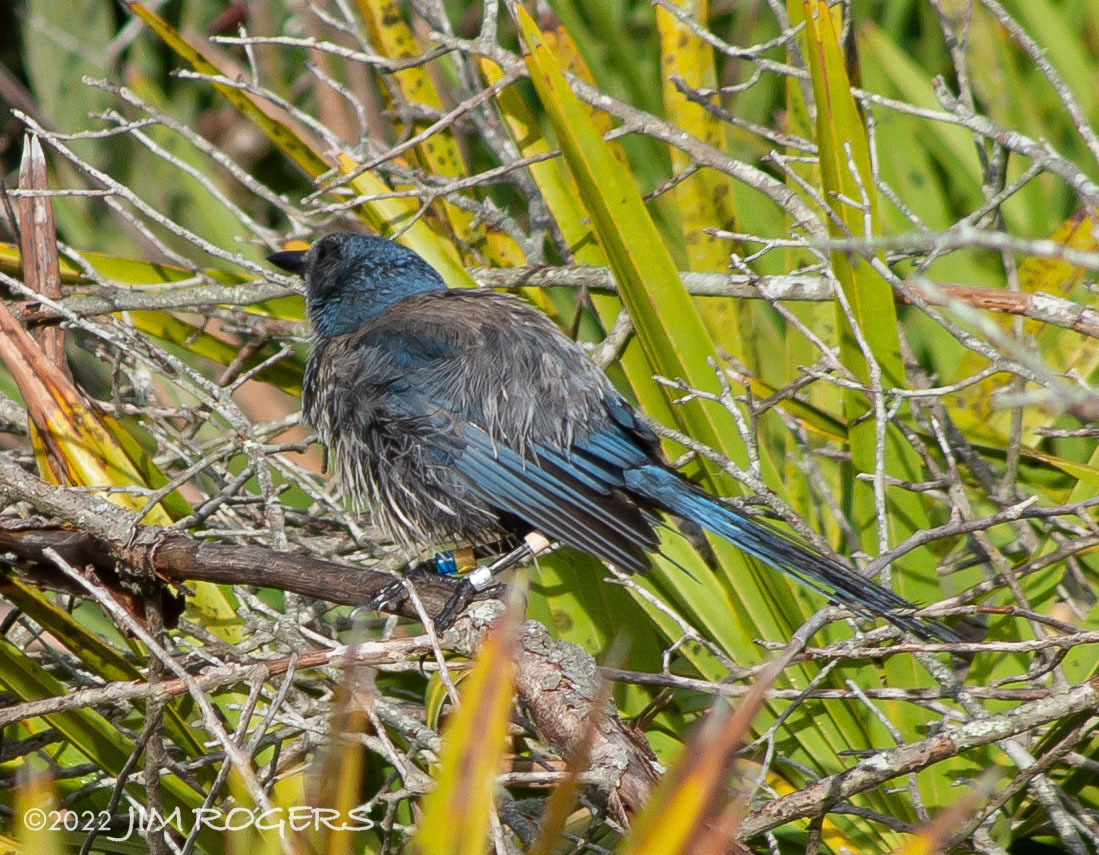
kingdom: Animalia
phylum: Chordata
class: Aves
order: Passeriformes
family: Corvidae
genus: Aphelocoma
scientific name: Aphelocoma coerulescens
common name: Florida scrub jay
